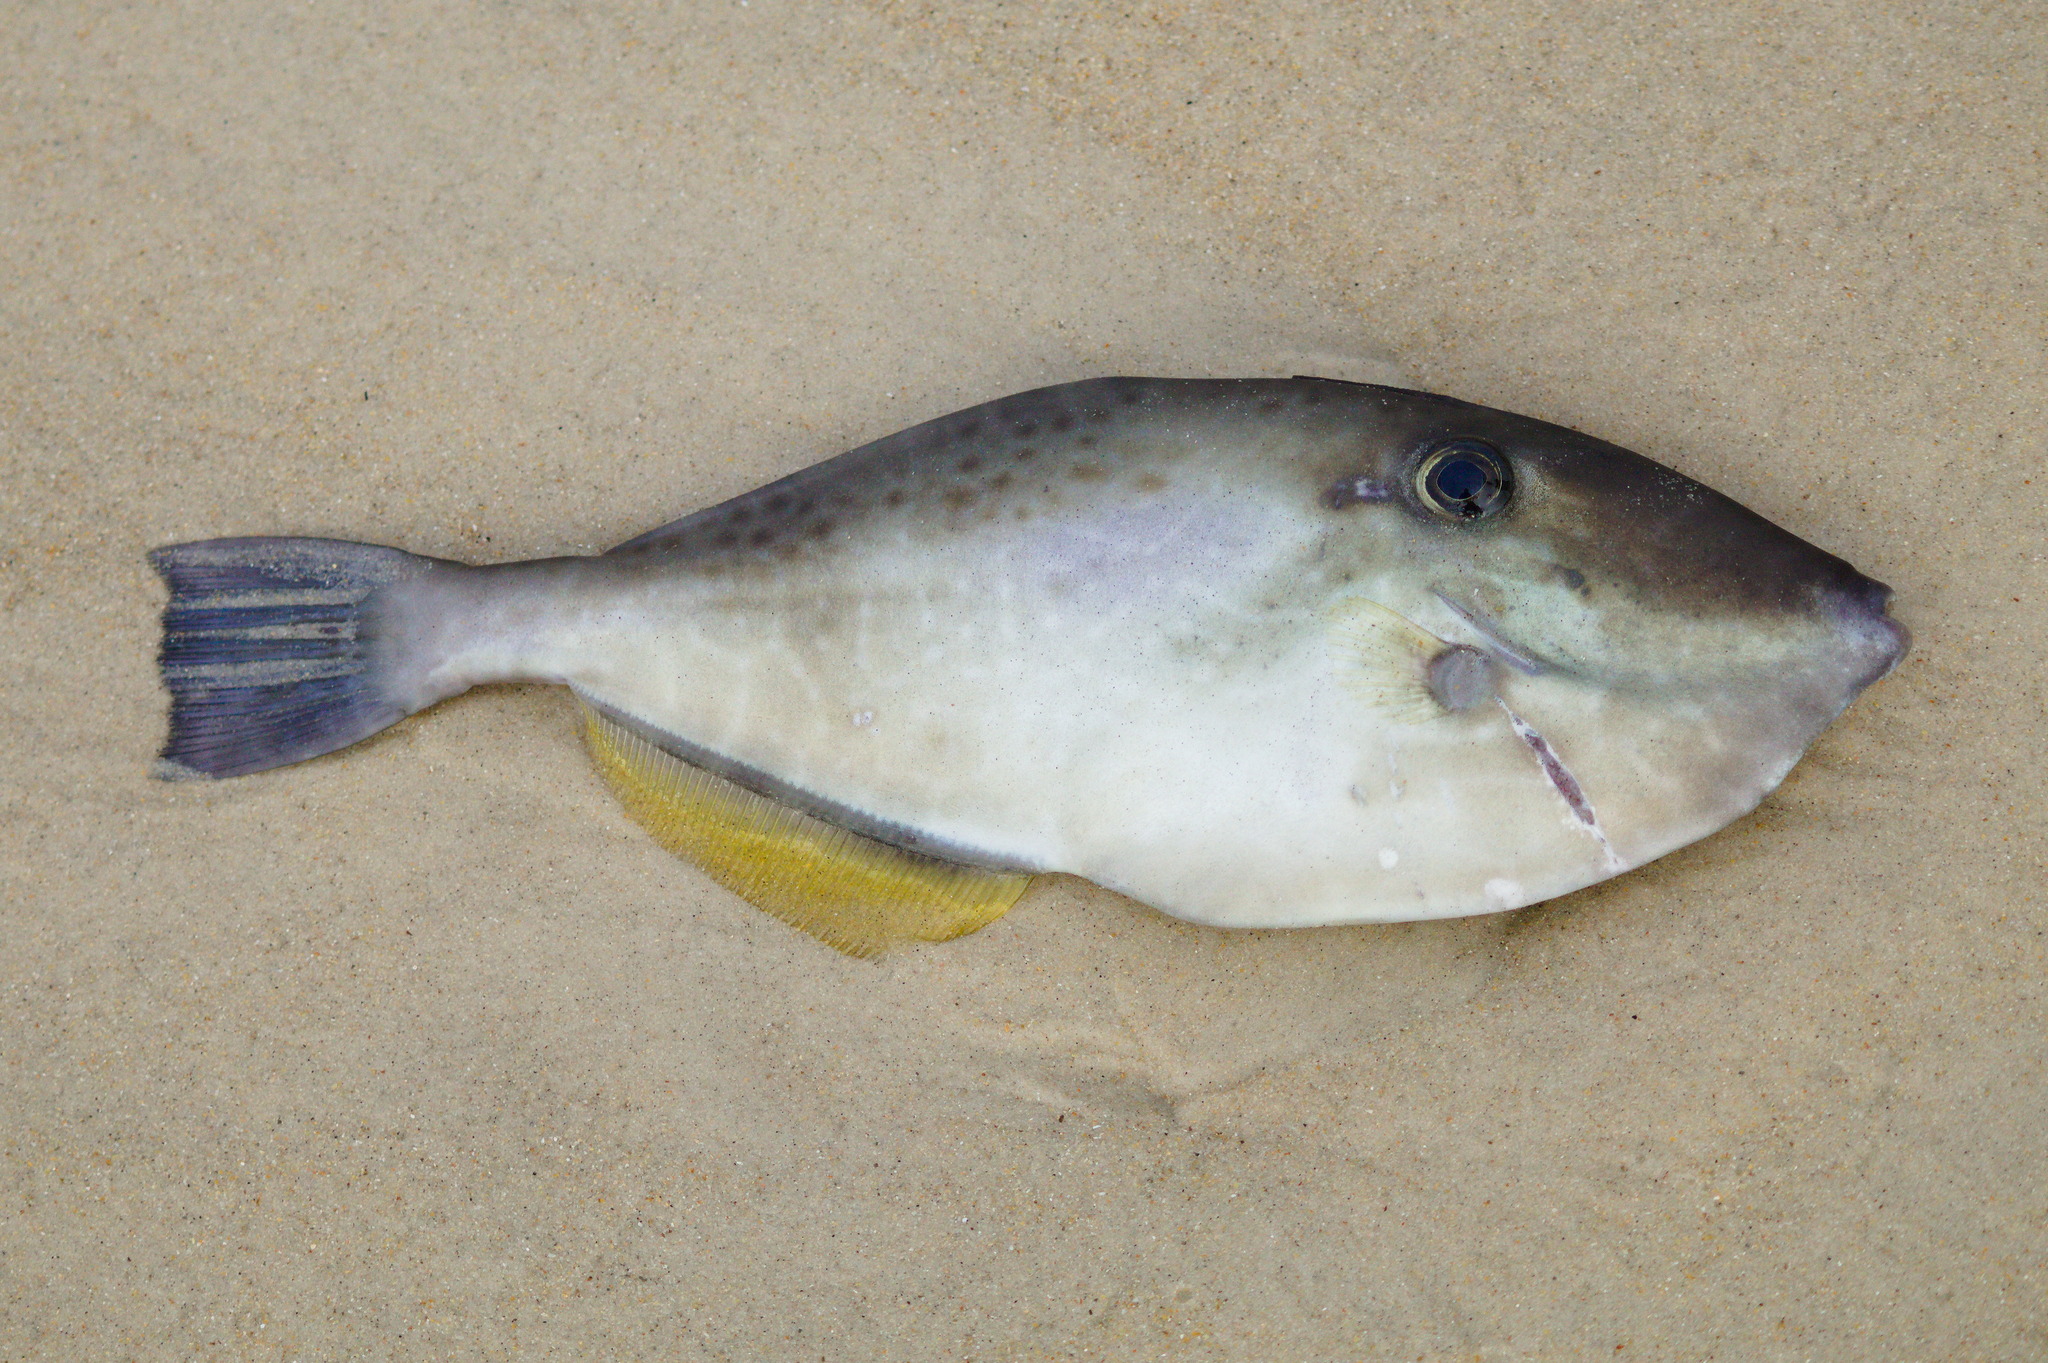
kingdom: Animalia
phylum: Chordata
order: Tetraodontiformes
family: Monacanthidae
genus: Aluterus
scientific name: Aluterus monoceros
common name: Batfish
